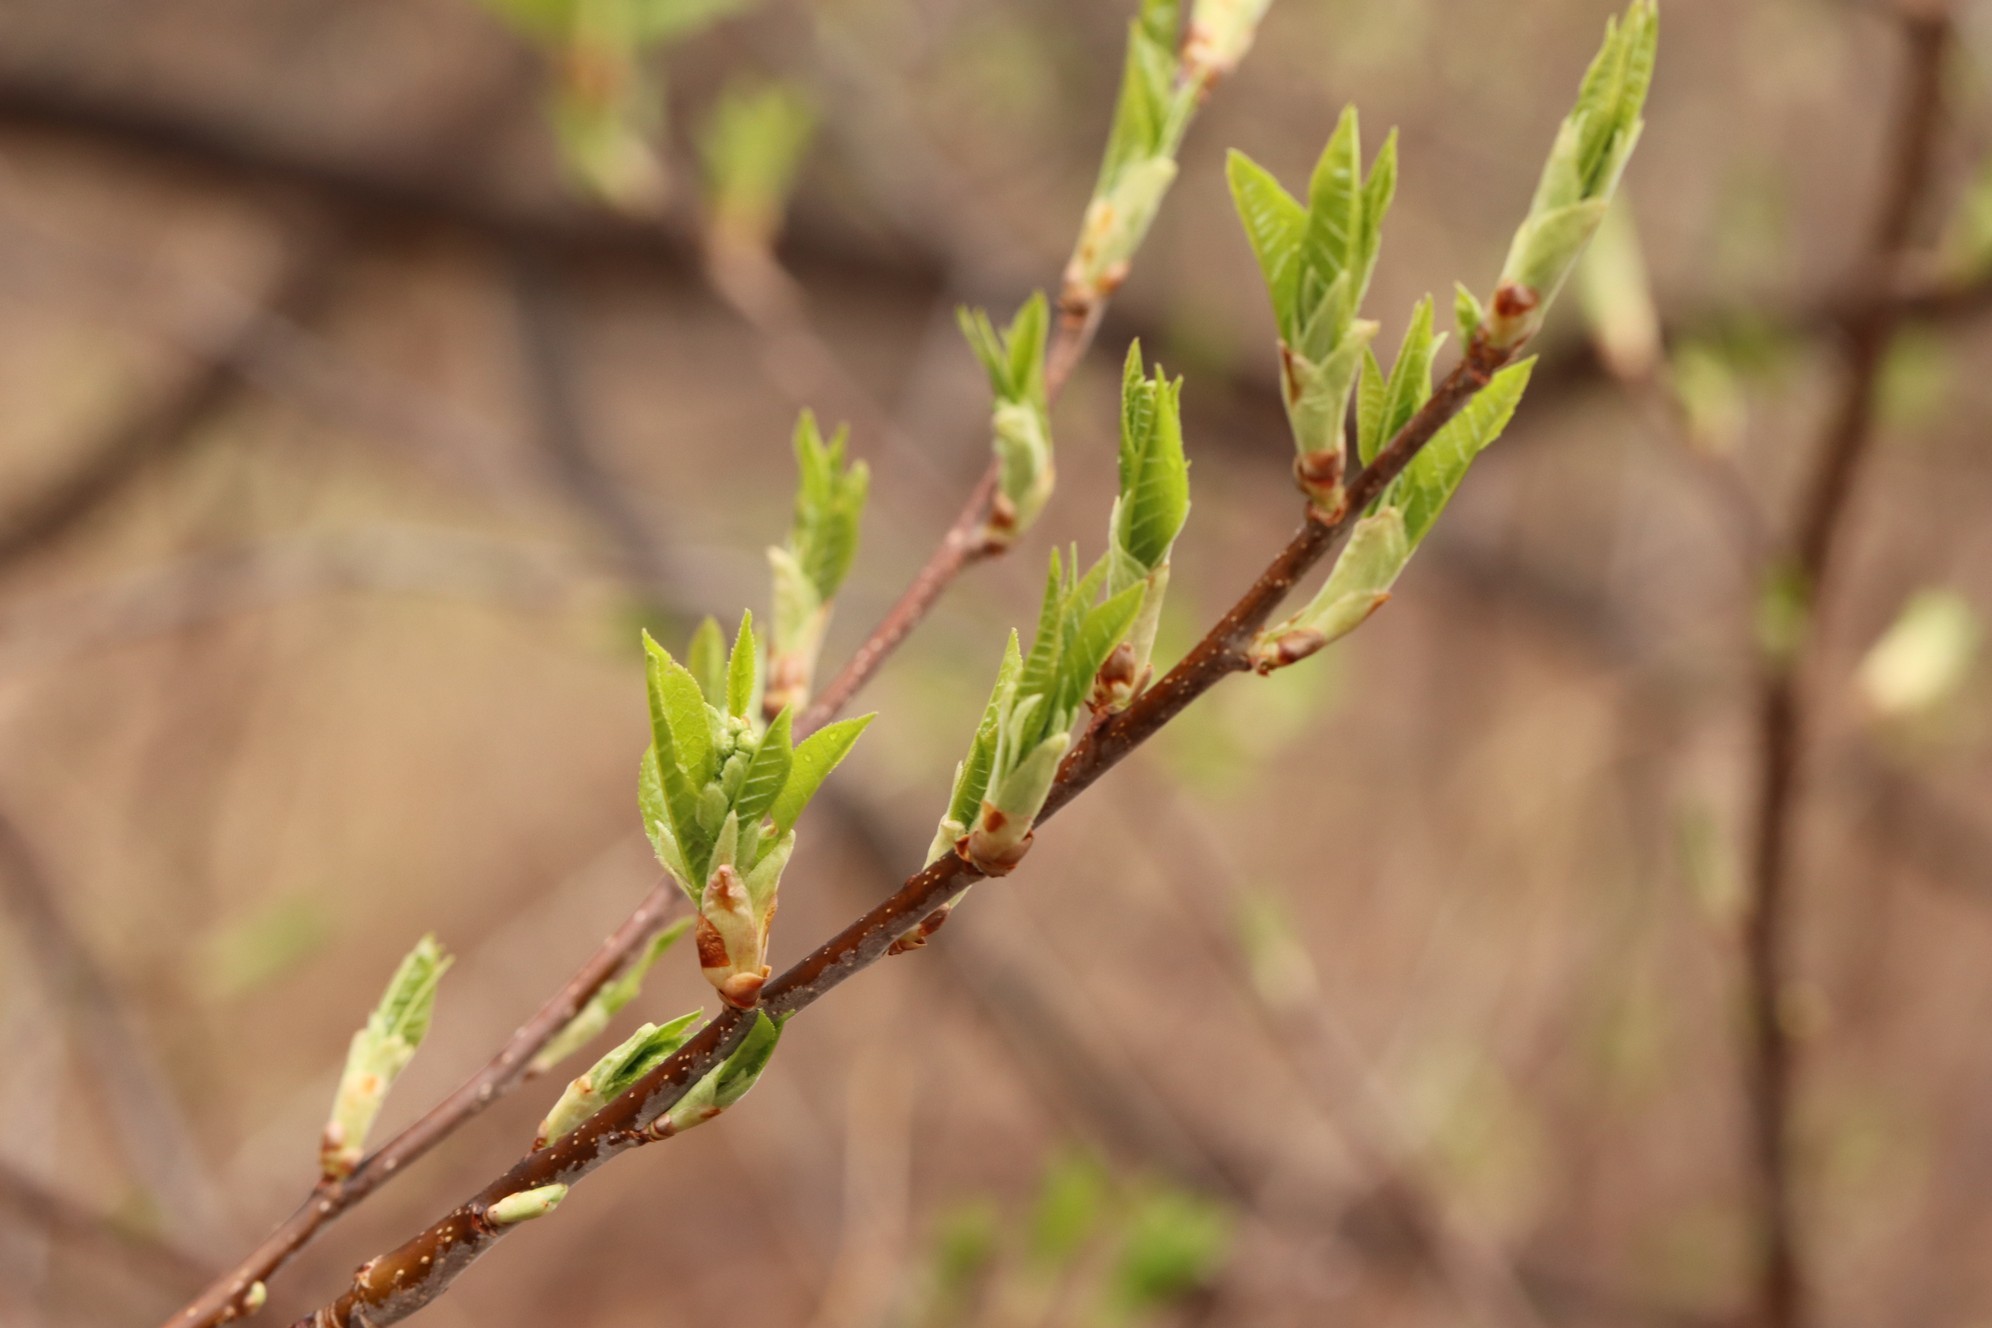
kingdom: Plantae
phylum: Tracheophyta
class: Magnoliopsida
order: Rosales
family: Rosaceae
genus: Prunus
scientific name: Prunus padus
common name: Bird cherry
